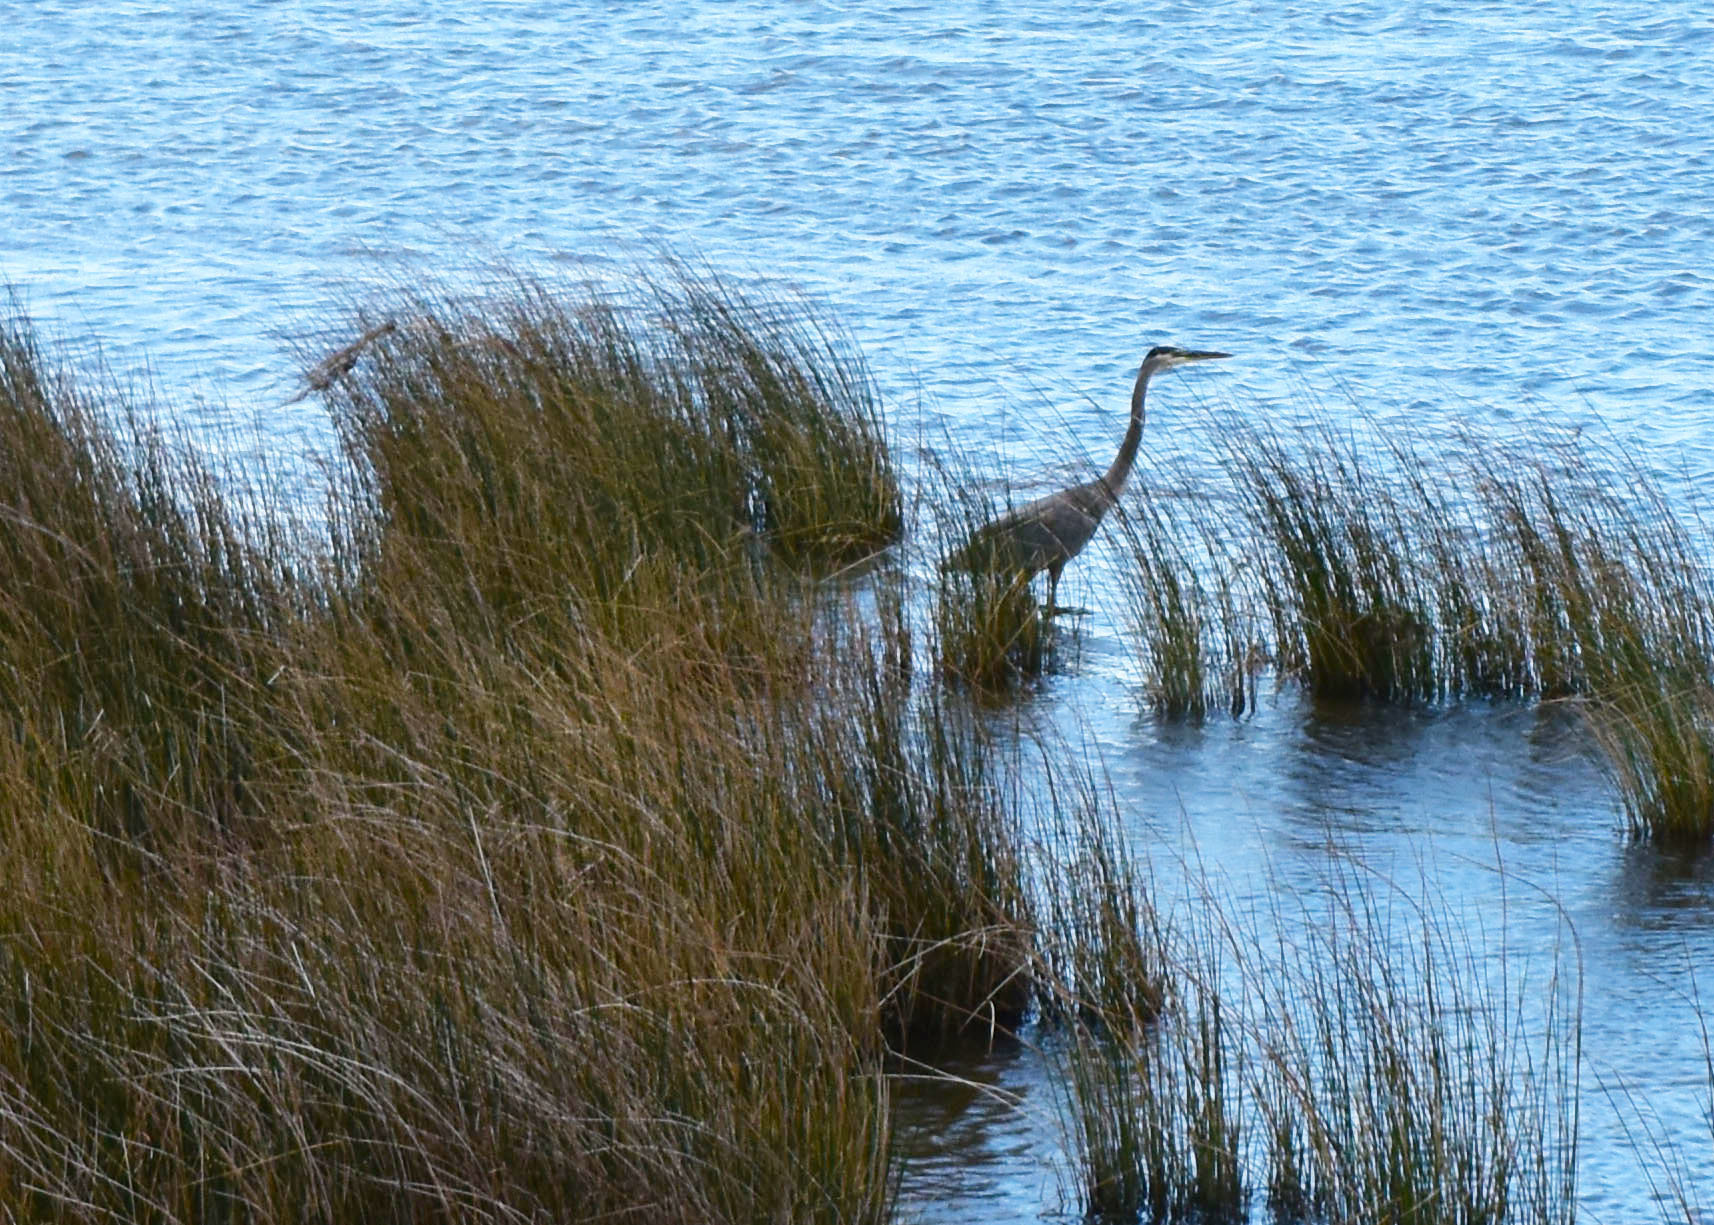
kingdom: Animalia
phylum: Chordata
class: Aves
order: Pelecaniformes
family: Ardeidae
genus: Ardea
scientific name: Ardea herodias
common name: Great blue heron
